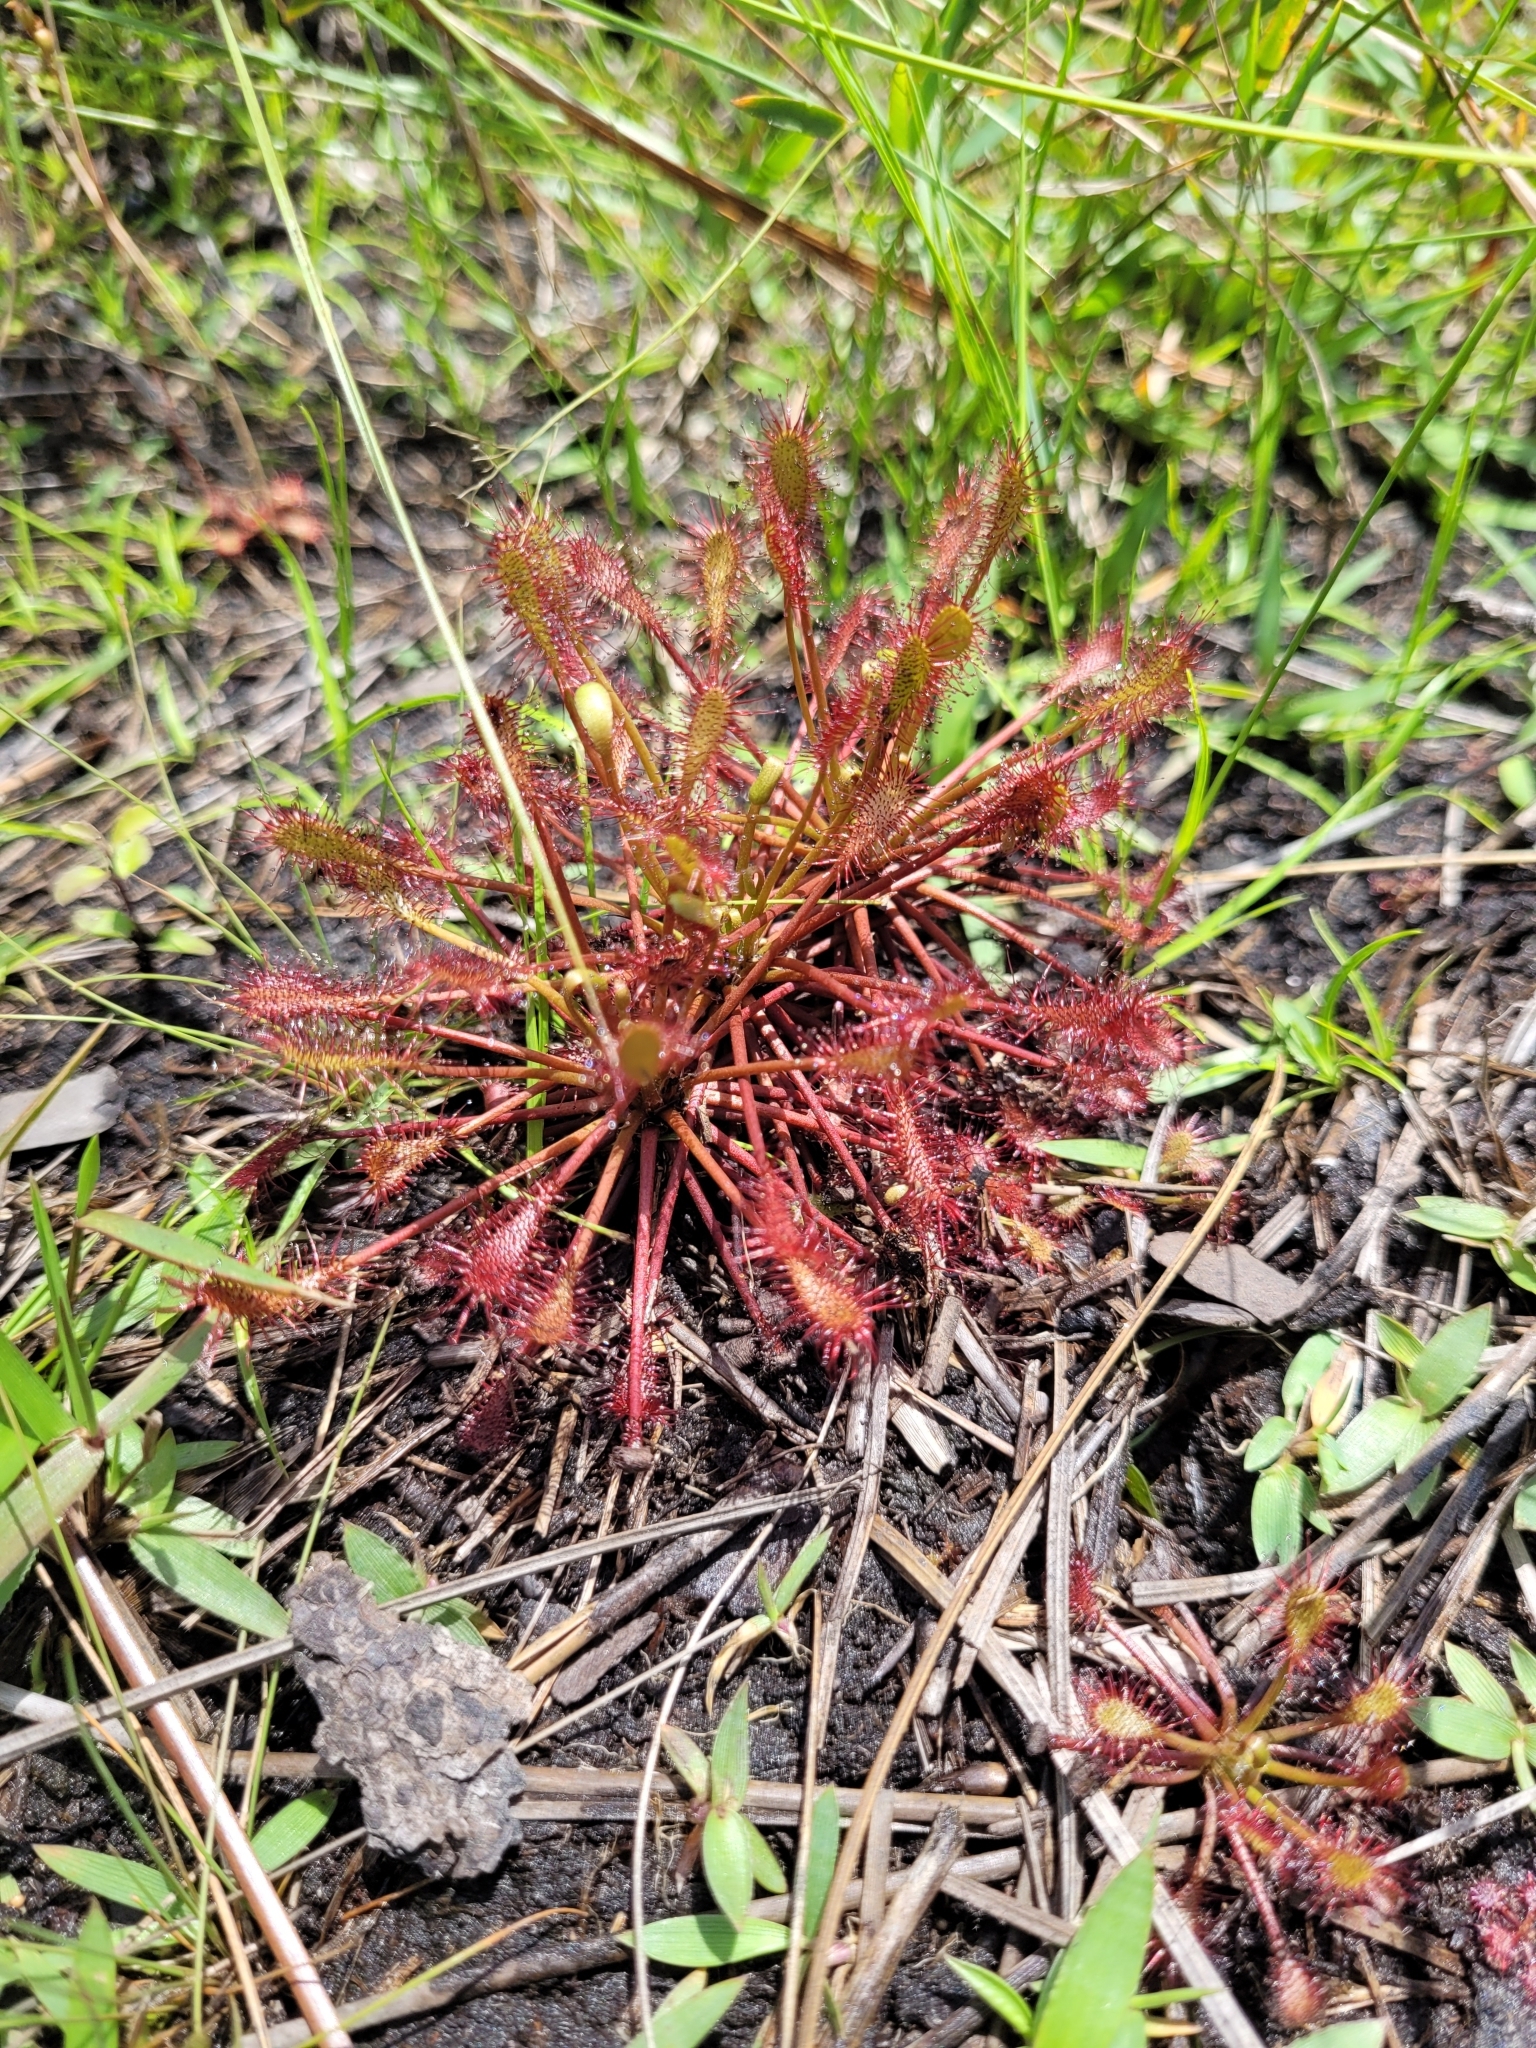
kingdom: Plantae
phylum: Tracheophyta
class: Magnoliopsida
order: Caryophyllales
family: Droseraceae
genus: Drosera
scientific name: Drosera intermedia
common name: Oblong-leaved sundew
